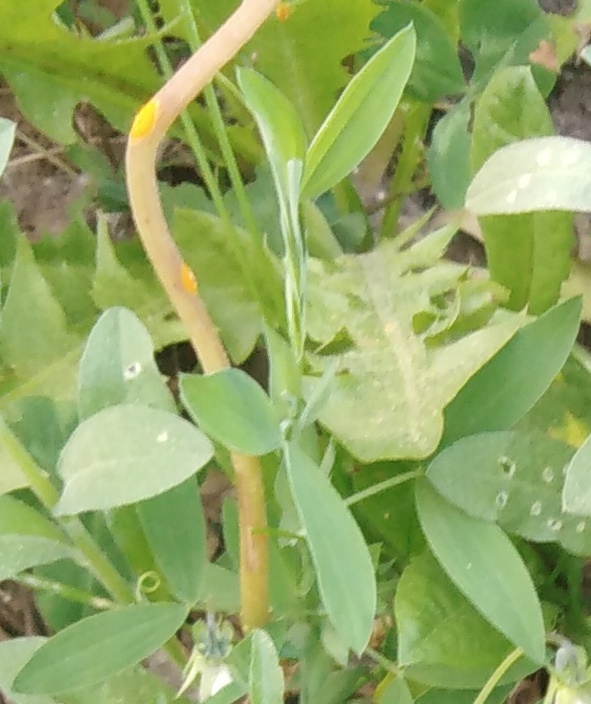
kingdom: Plantae
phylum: Tracheophyta
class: Magnoliopsida
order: Fabales
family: Fabaceae
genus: Lathyrus
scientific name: Lathyrus pratensis
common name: Meadow vetchling
